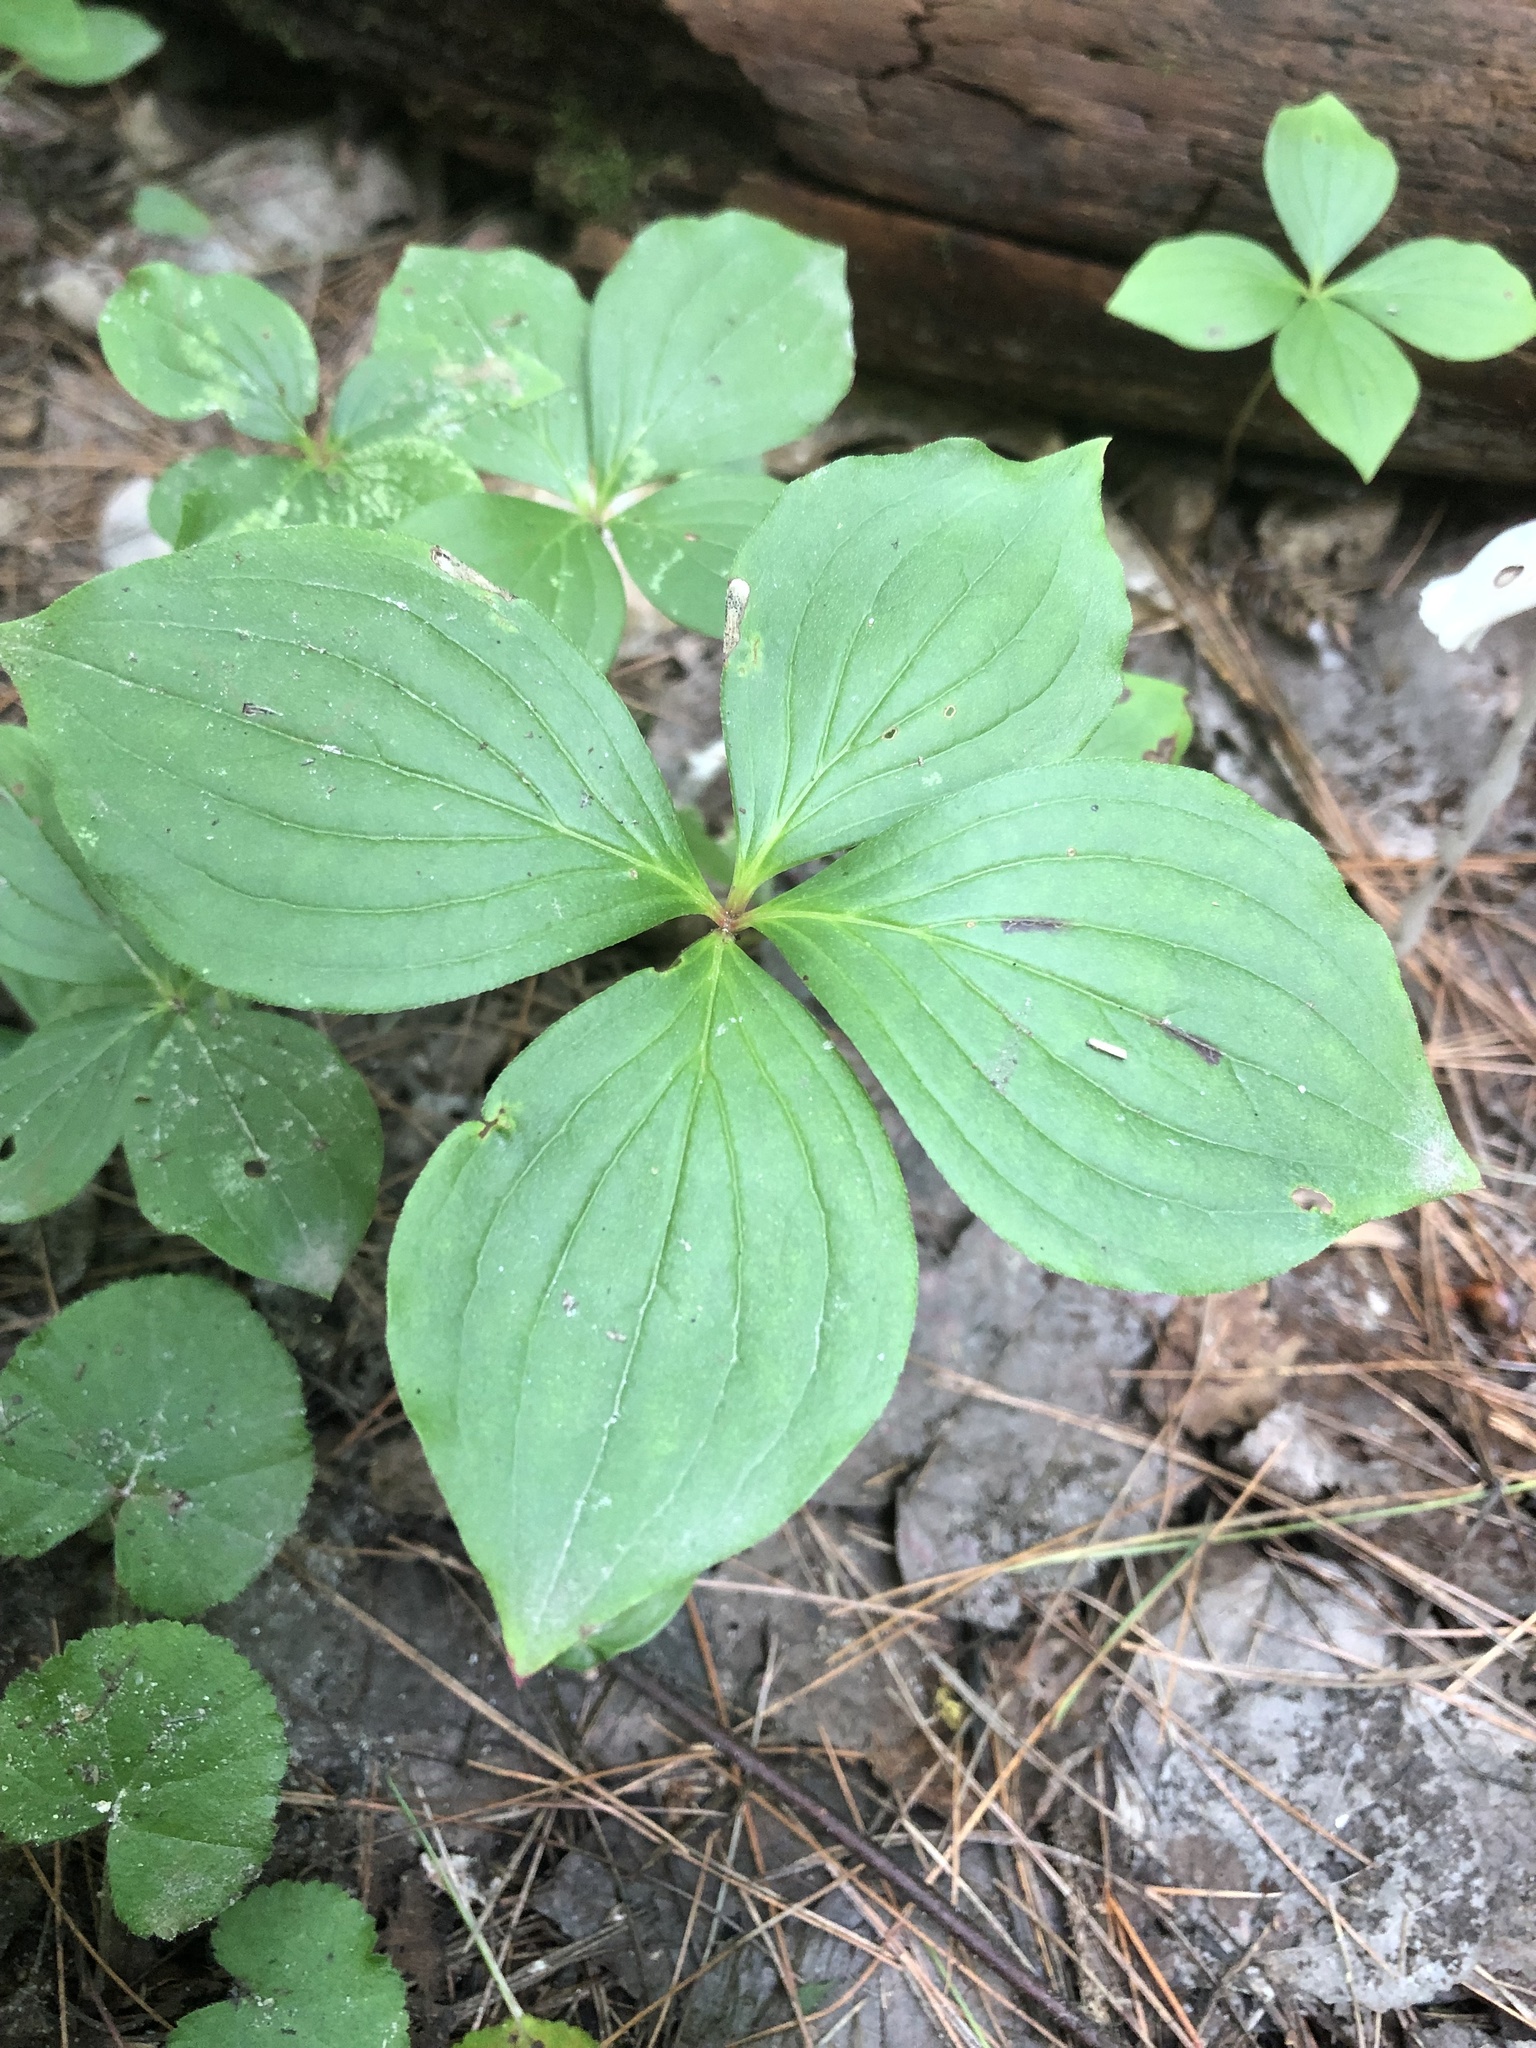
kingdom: Plantae
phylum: Tracheophyta
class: Magnoliopsida
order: Cornales
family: Cornaceae
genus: Cornus
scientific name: Cornus canadensis
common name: Creeping dogwood
